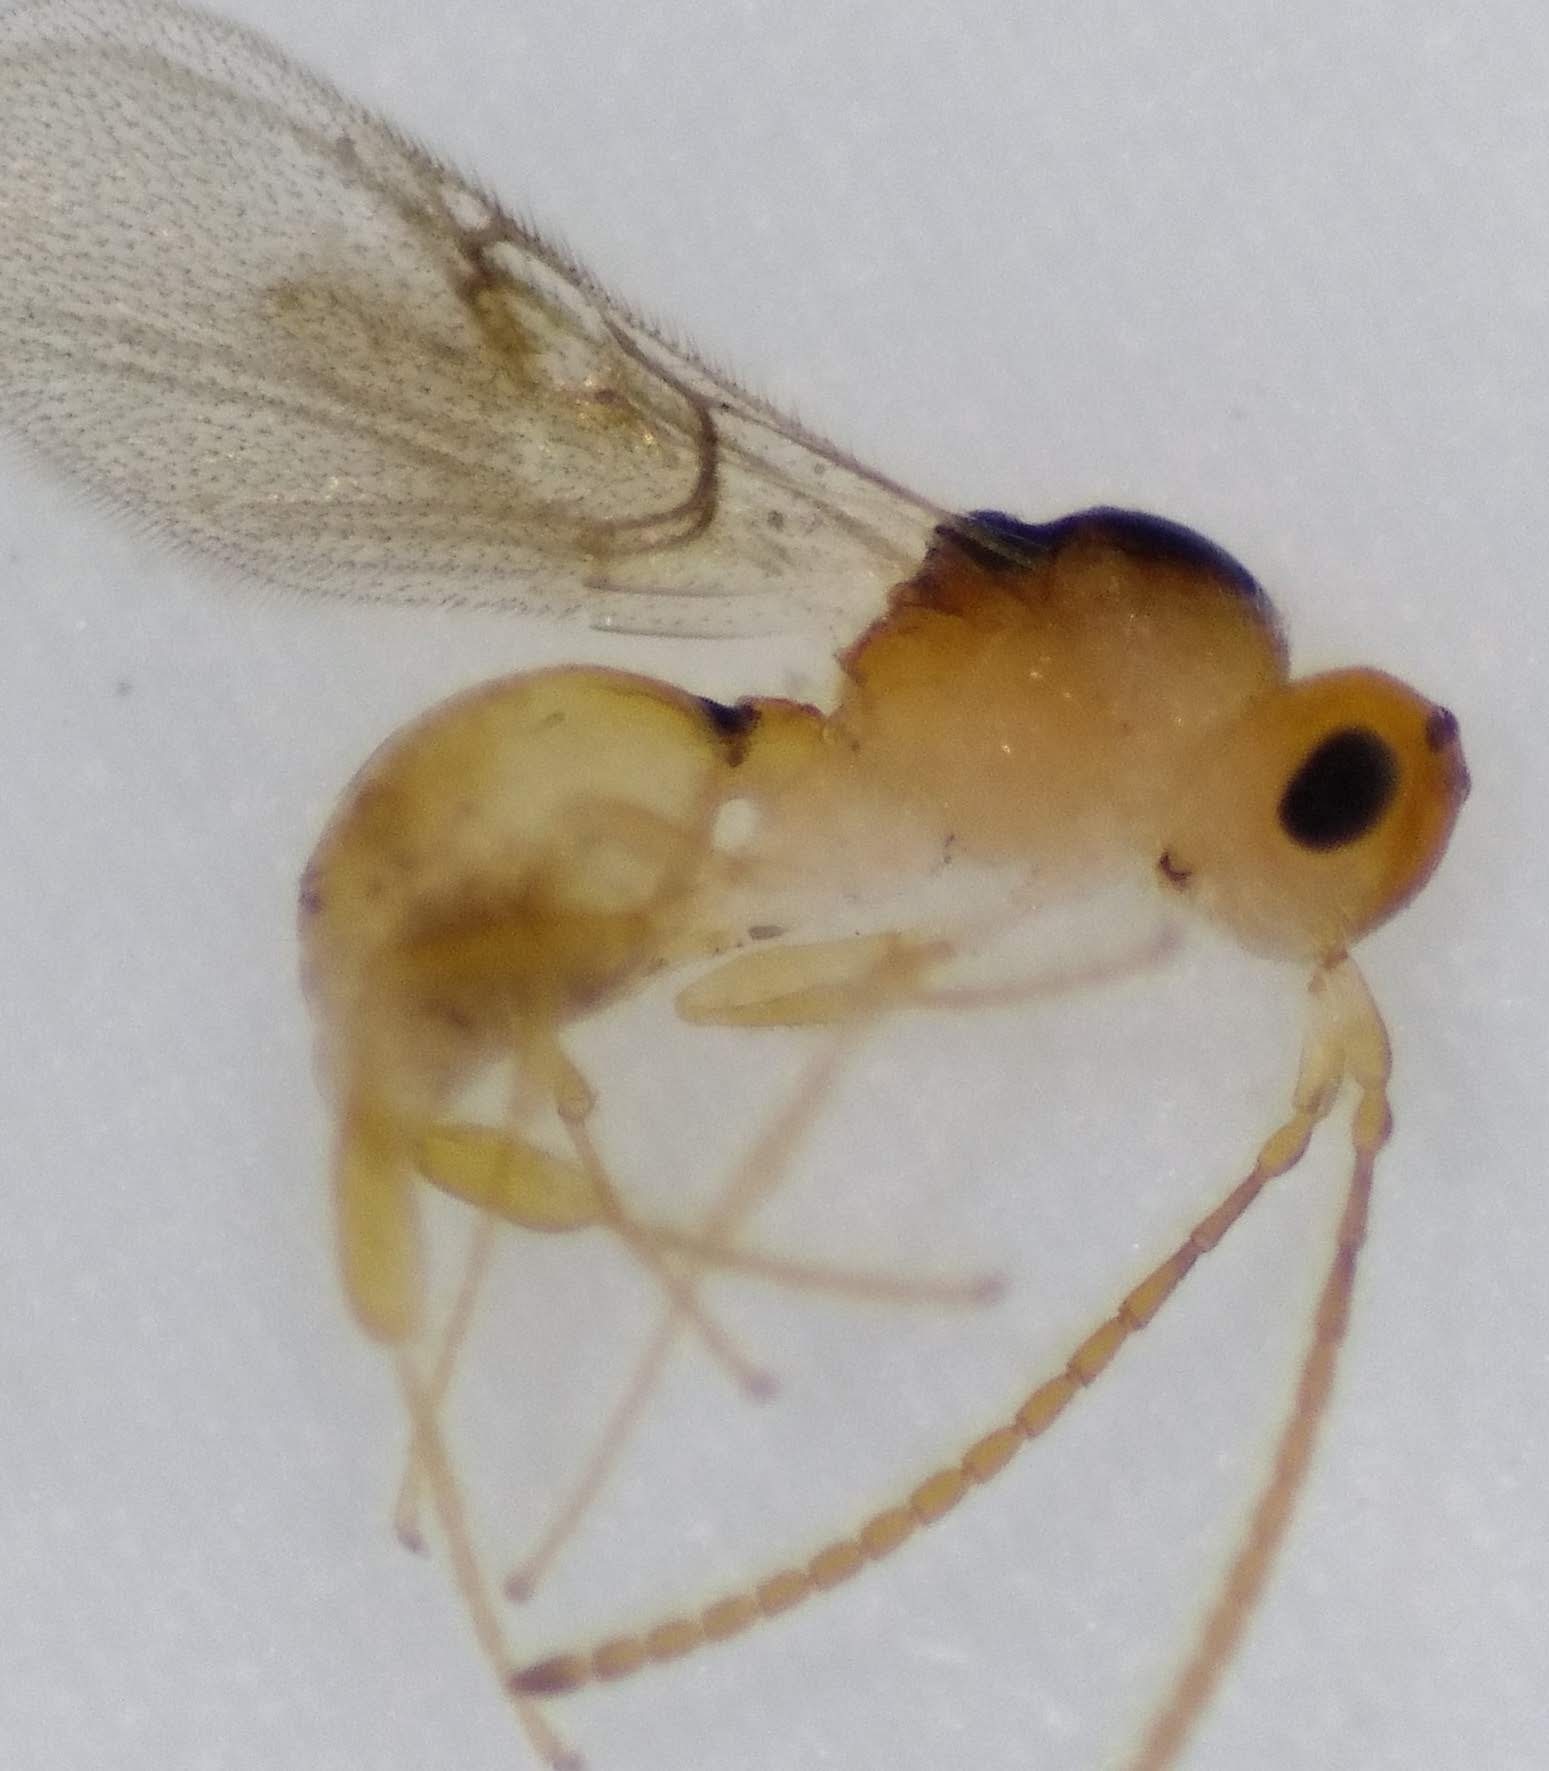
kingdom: Animalia
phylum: Arthropoda
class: Insecta
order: Hymenoptera
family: Diapriidae
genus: Ismarus
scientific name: Ismarus dorsiger
